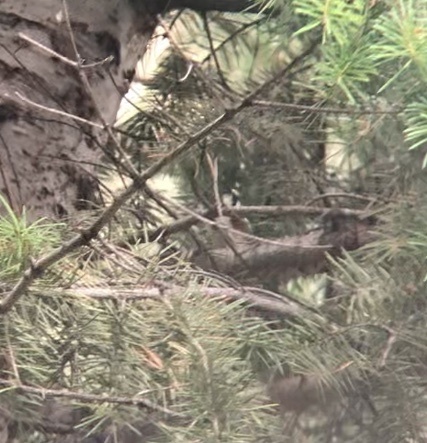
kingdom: Animalia
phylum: Chordata
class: Aves
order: Passeriformes
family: Parulidae
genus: Setophaga
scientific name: Setophaga pensylvanica
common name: Chestnut-sided warbler
